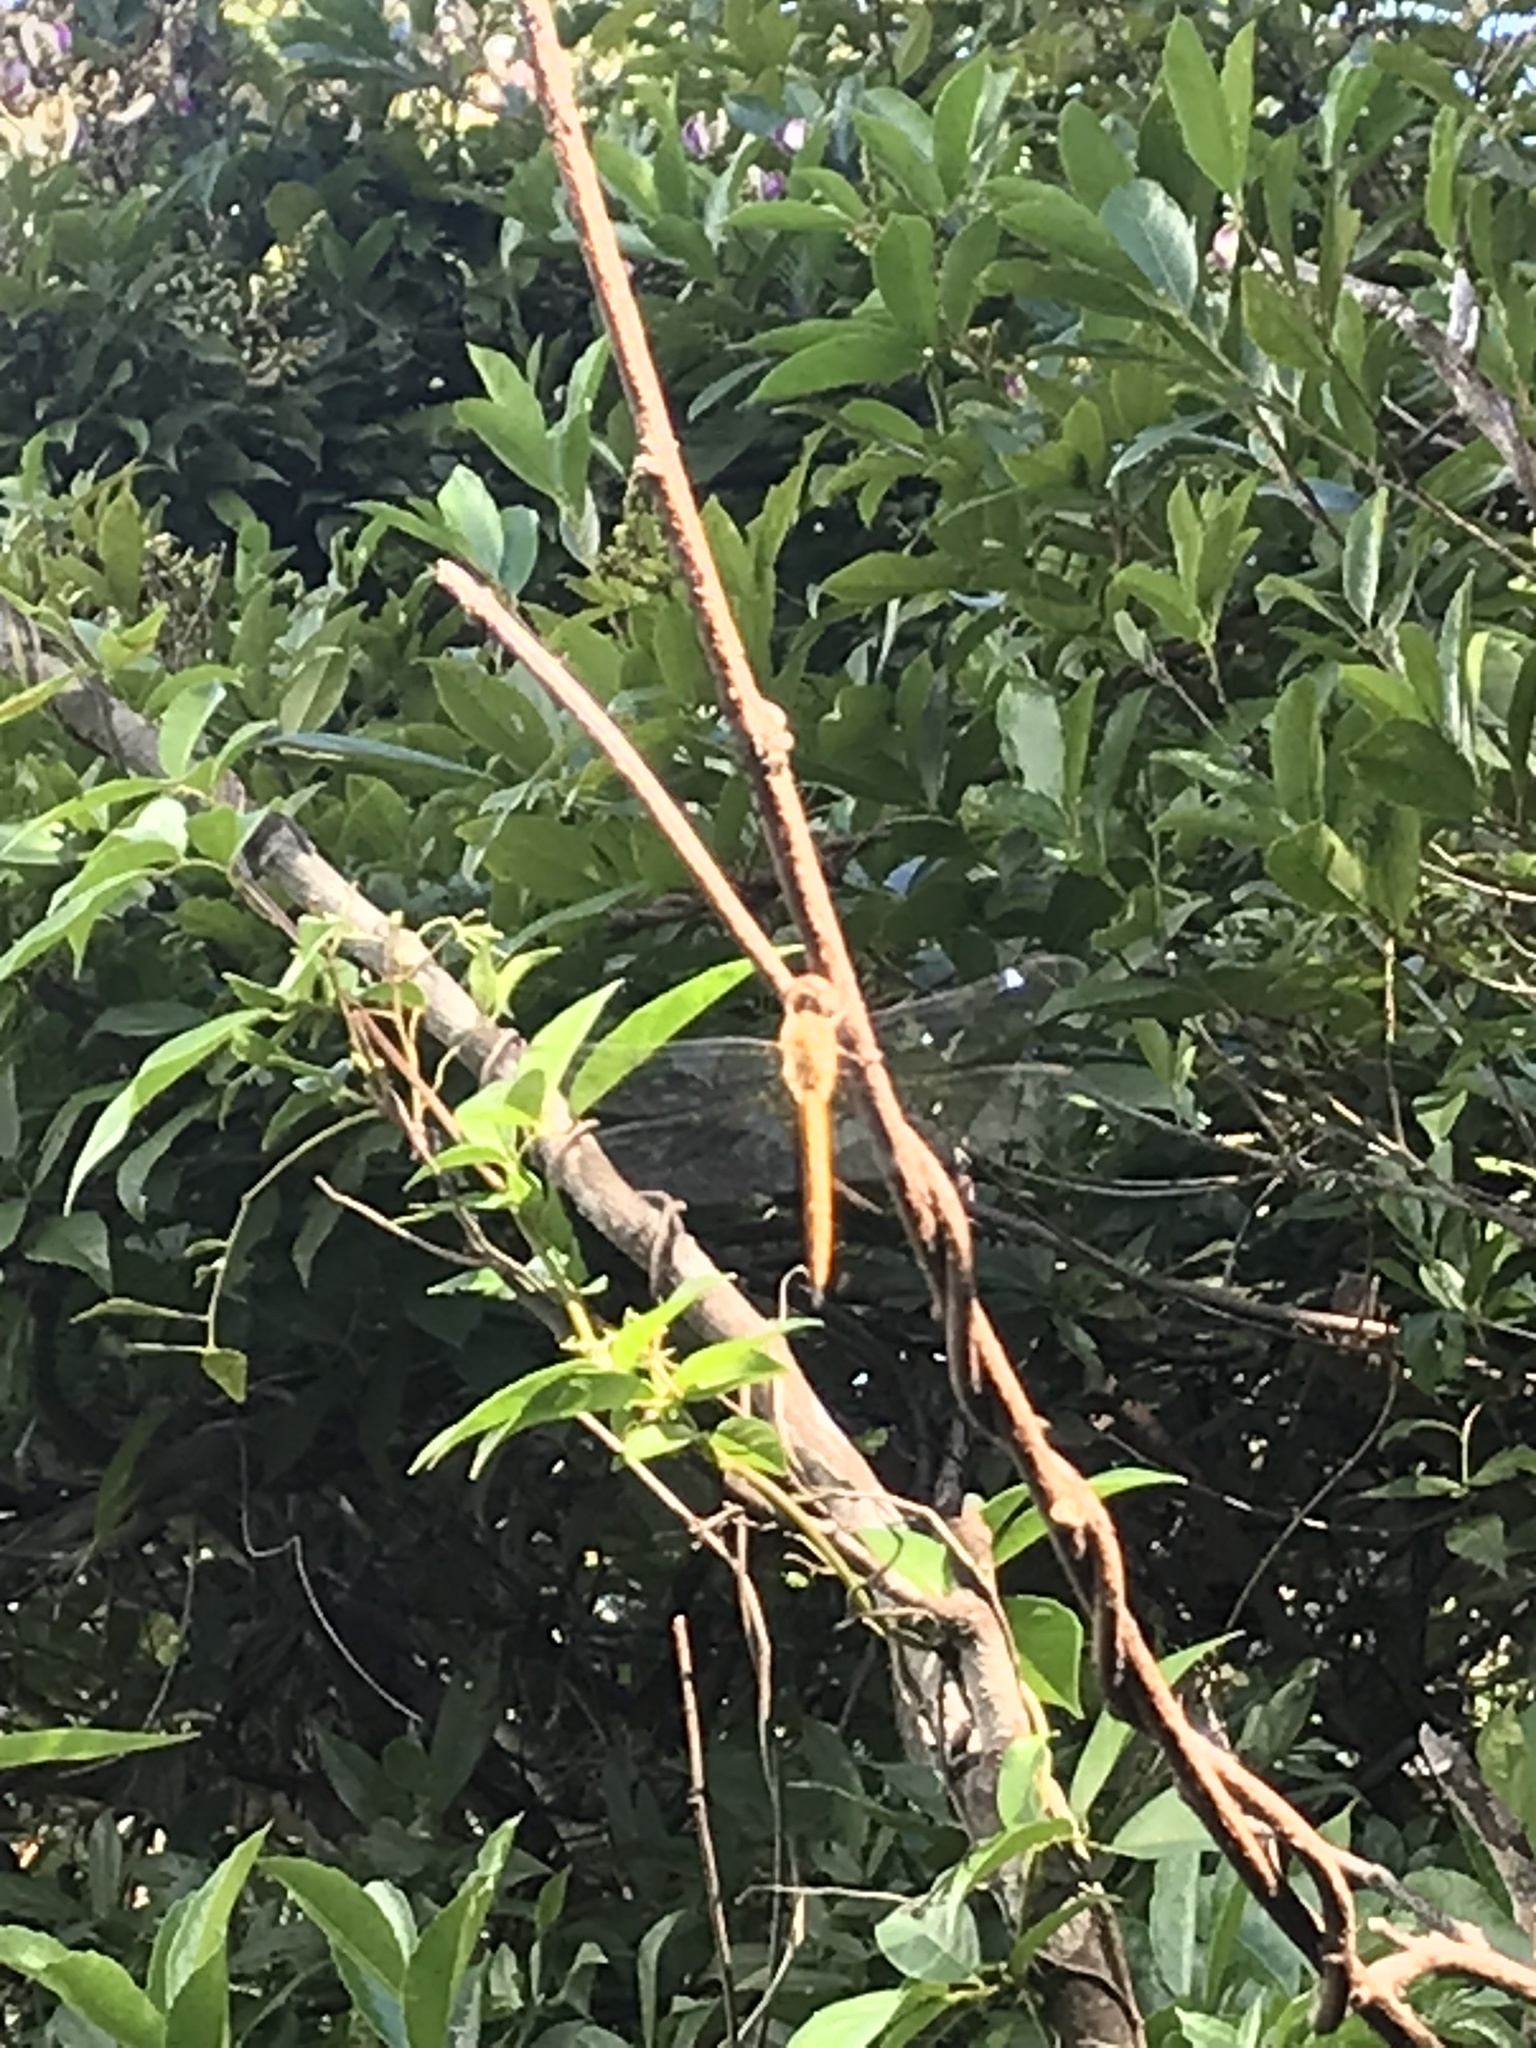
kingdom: Animalia
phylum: Arthropoda
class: Insecta
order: Odonata
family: Libellulidae
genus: Pantala
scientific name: Pantala flavescens
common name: Wandering glider
